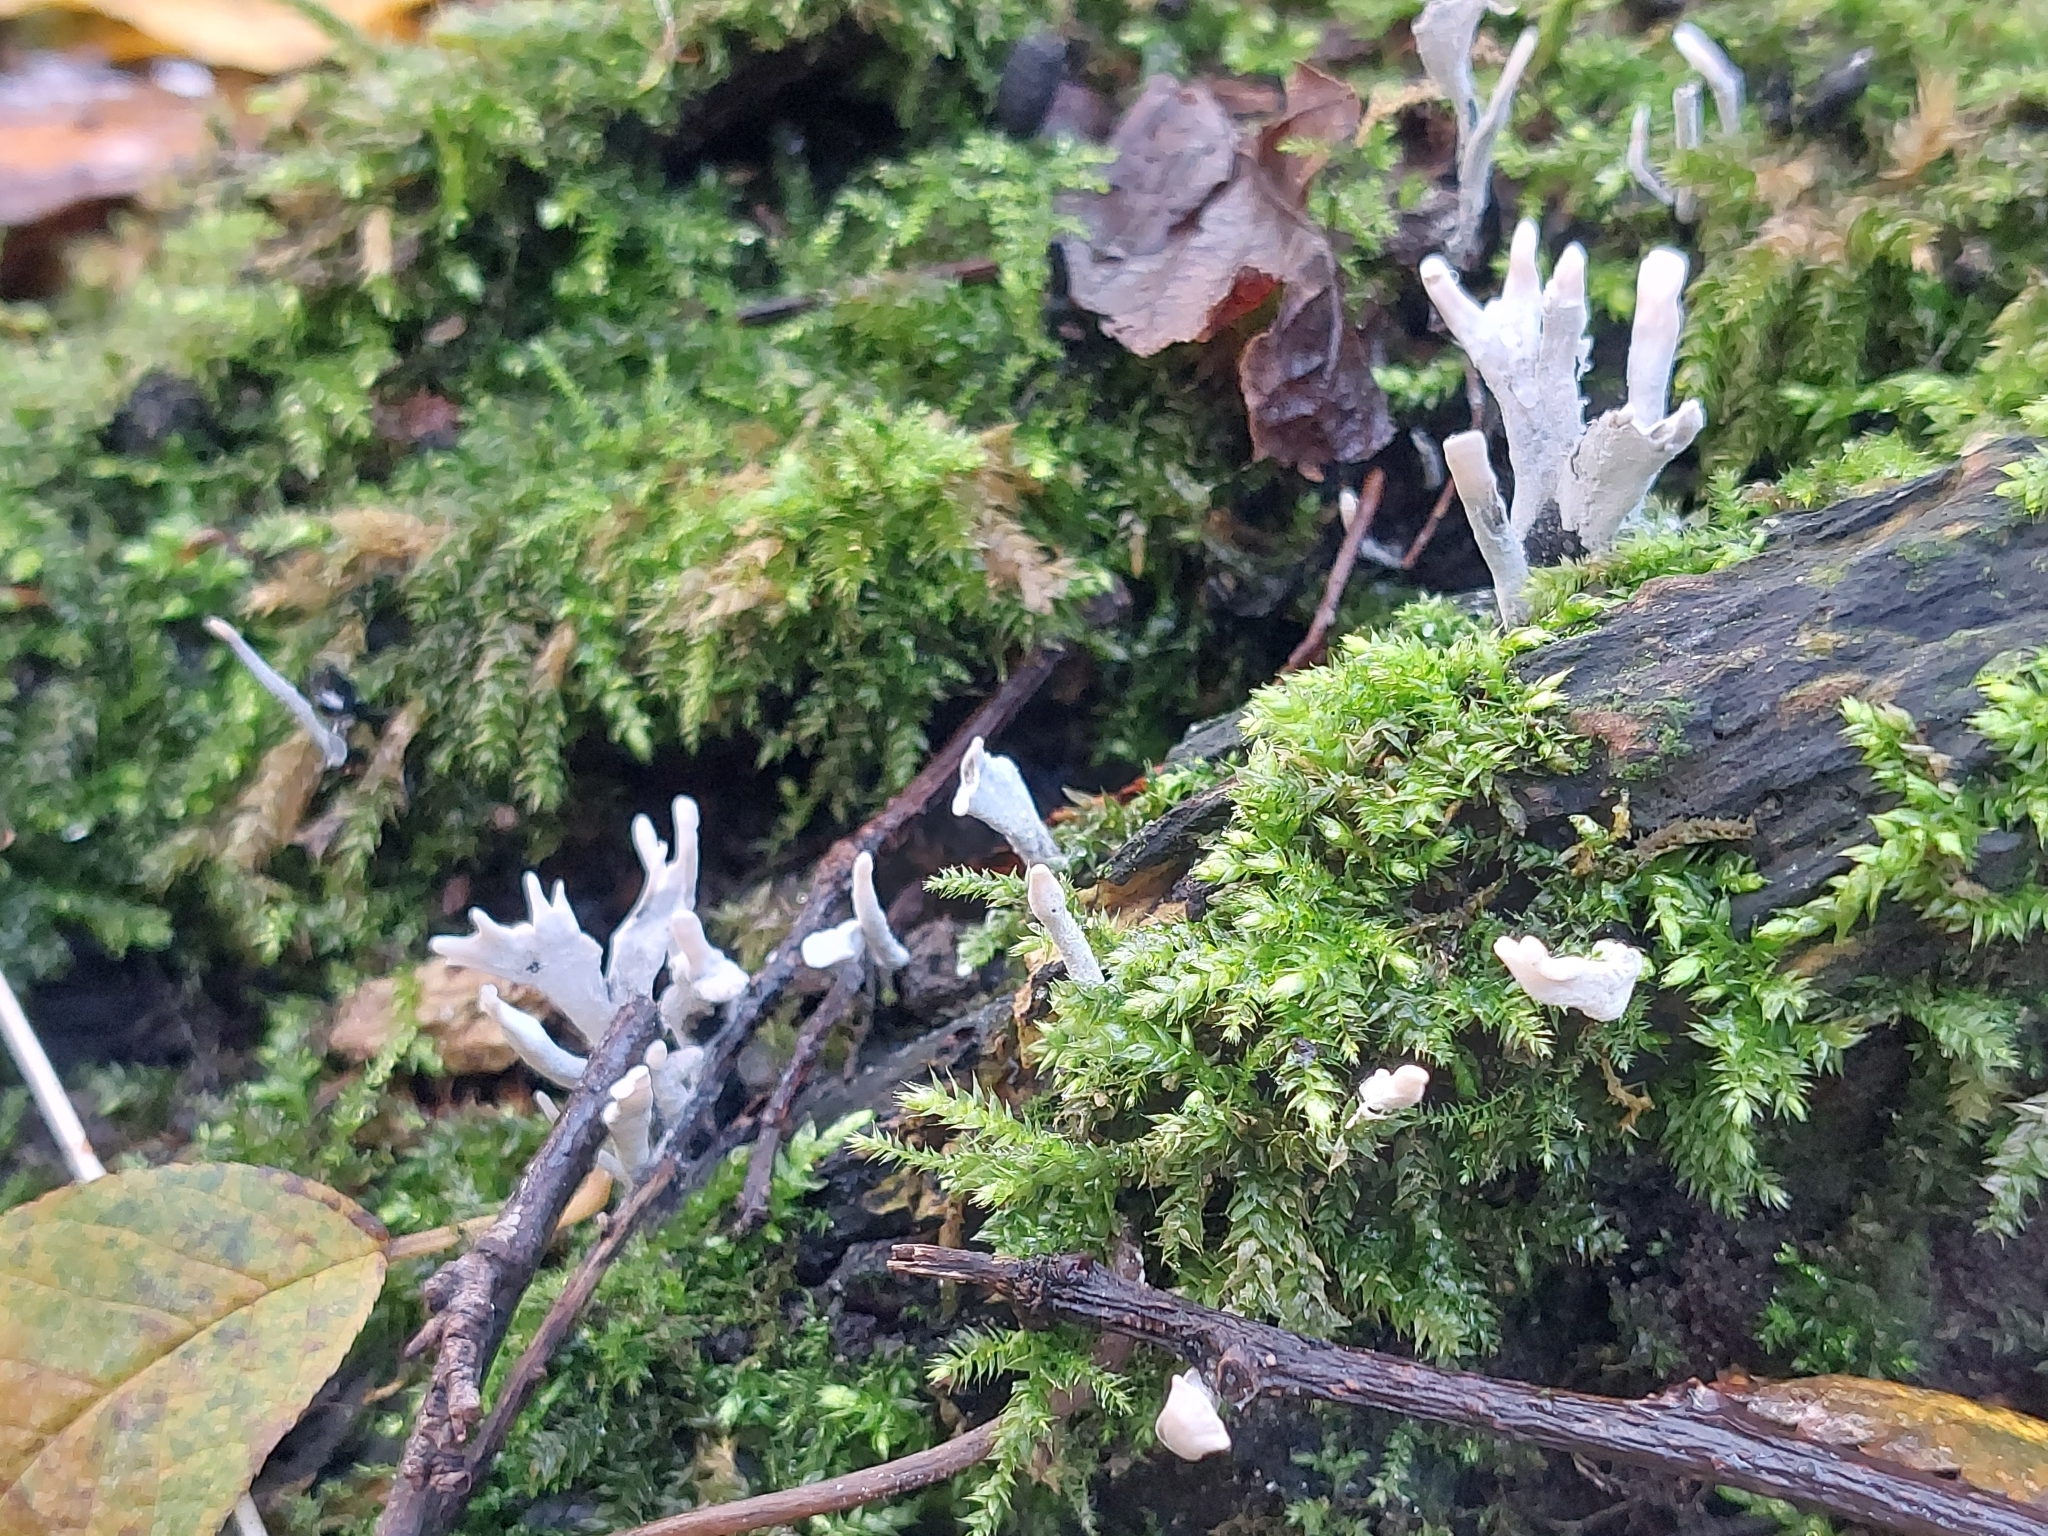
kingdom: Fungi
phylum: Ascomycota
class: Sordariomycetes
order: Xylariales
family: Xylariaceae
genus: Xylaria
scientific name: Xylaria hypoxylon
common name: Candle-snuff fungus
